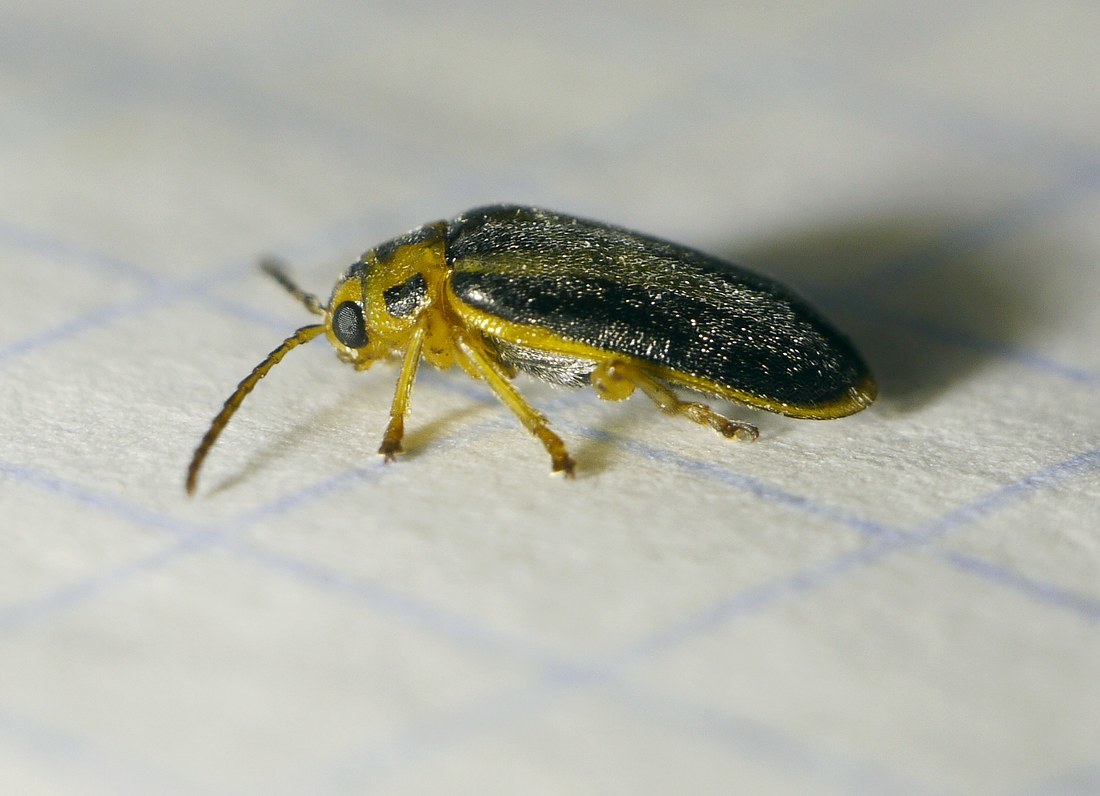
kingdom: Animalia
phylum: Arthropoda
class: Insecta
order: Coleoptera
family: Chrysomelidae
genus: Xanthogaleruca
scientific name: Xanthogaleruca luteola
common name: Elm leaf beetle
